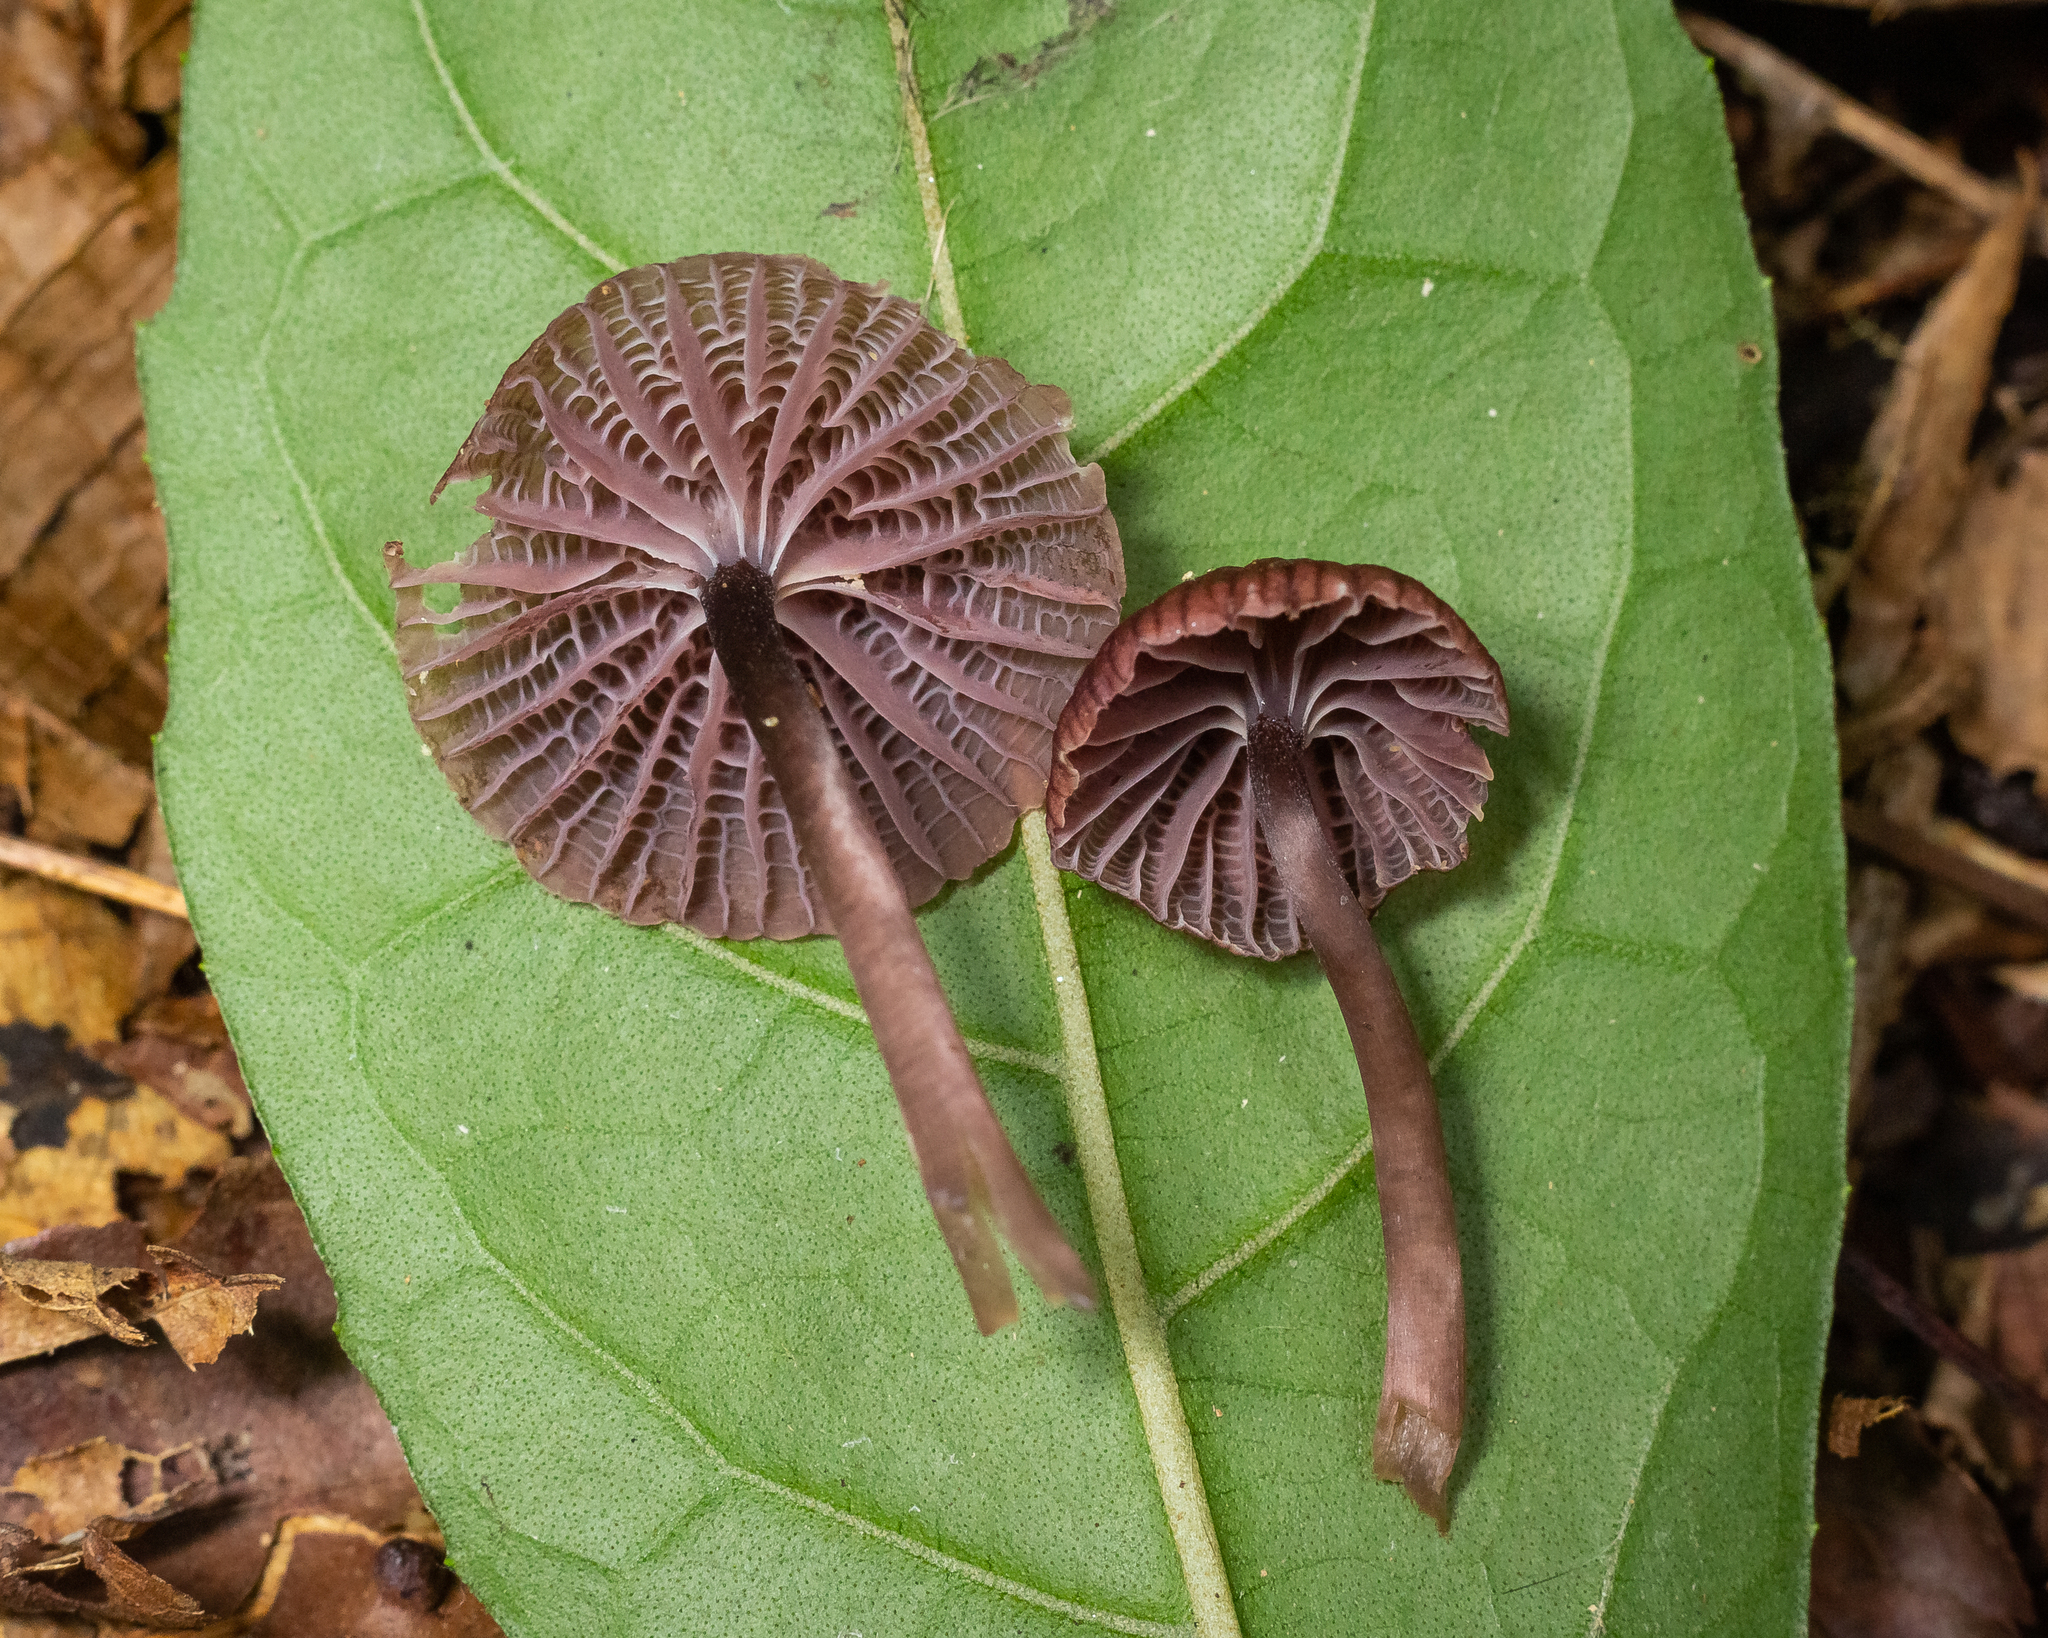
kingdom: Fungi
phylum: Basidiomycota
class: Agaricomycetes
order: Agaricales
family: Mycenaceae
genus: Mycena
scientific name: Mycena holoporphyra
